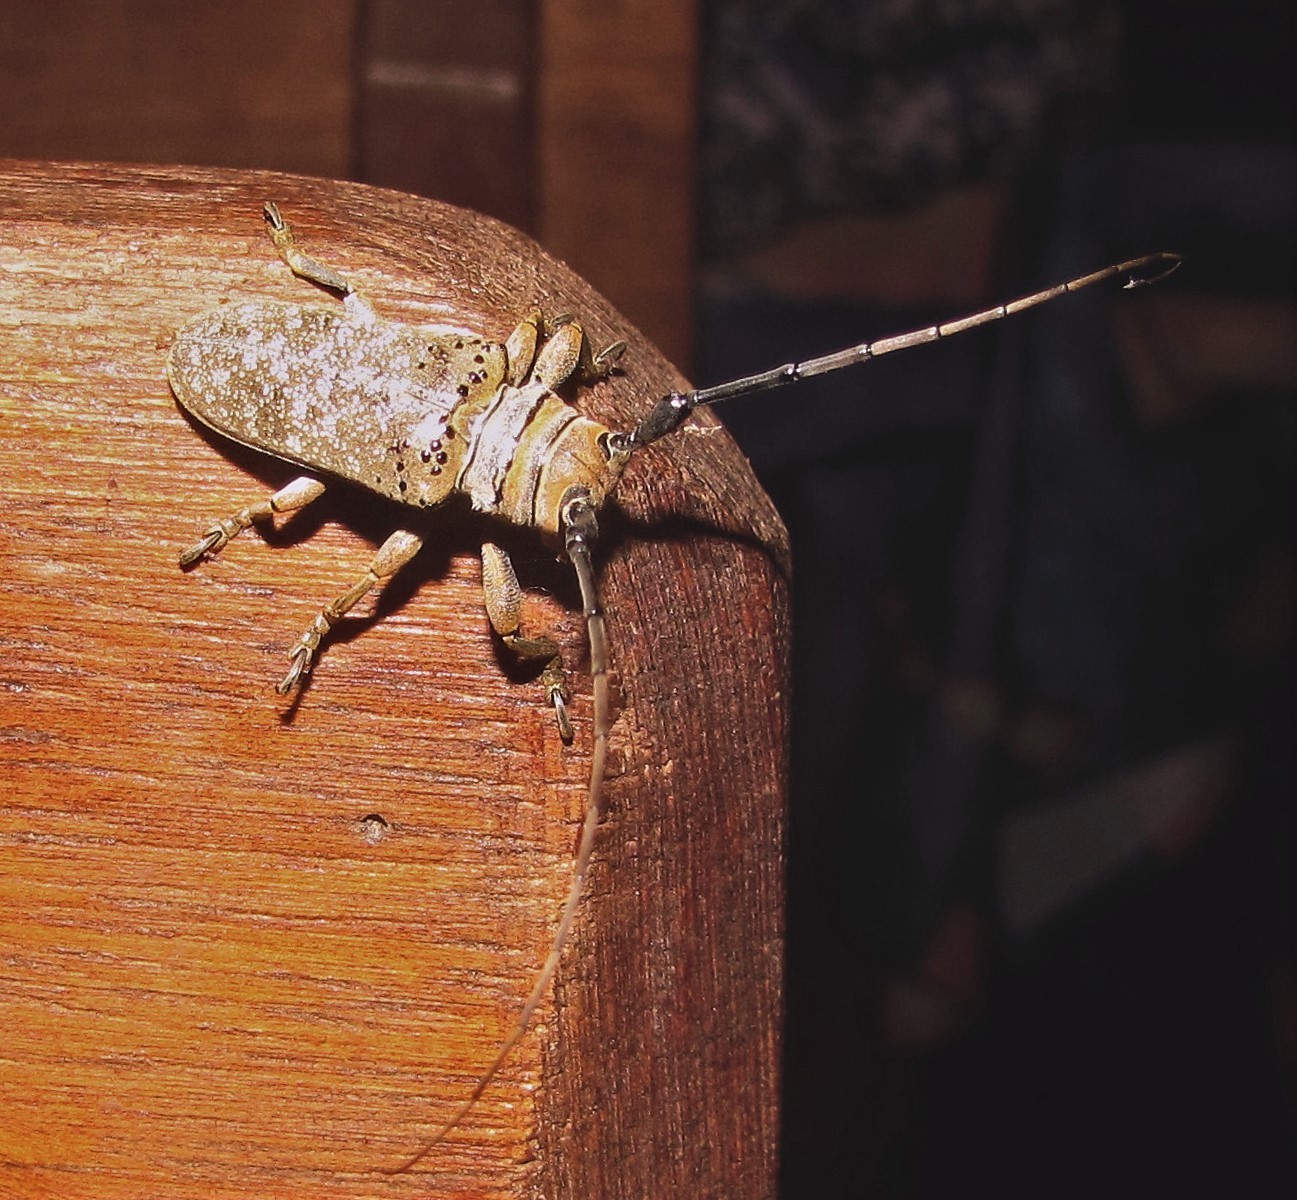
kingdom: Animalia
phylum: Arthropoda
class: Insecta
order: Coleoptera
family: Cerambycidae
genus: Oncideres
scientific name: Oncideres germarii
